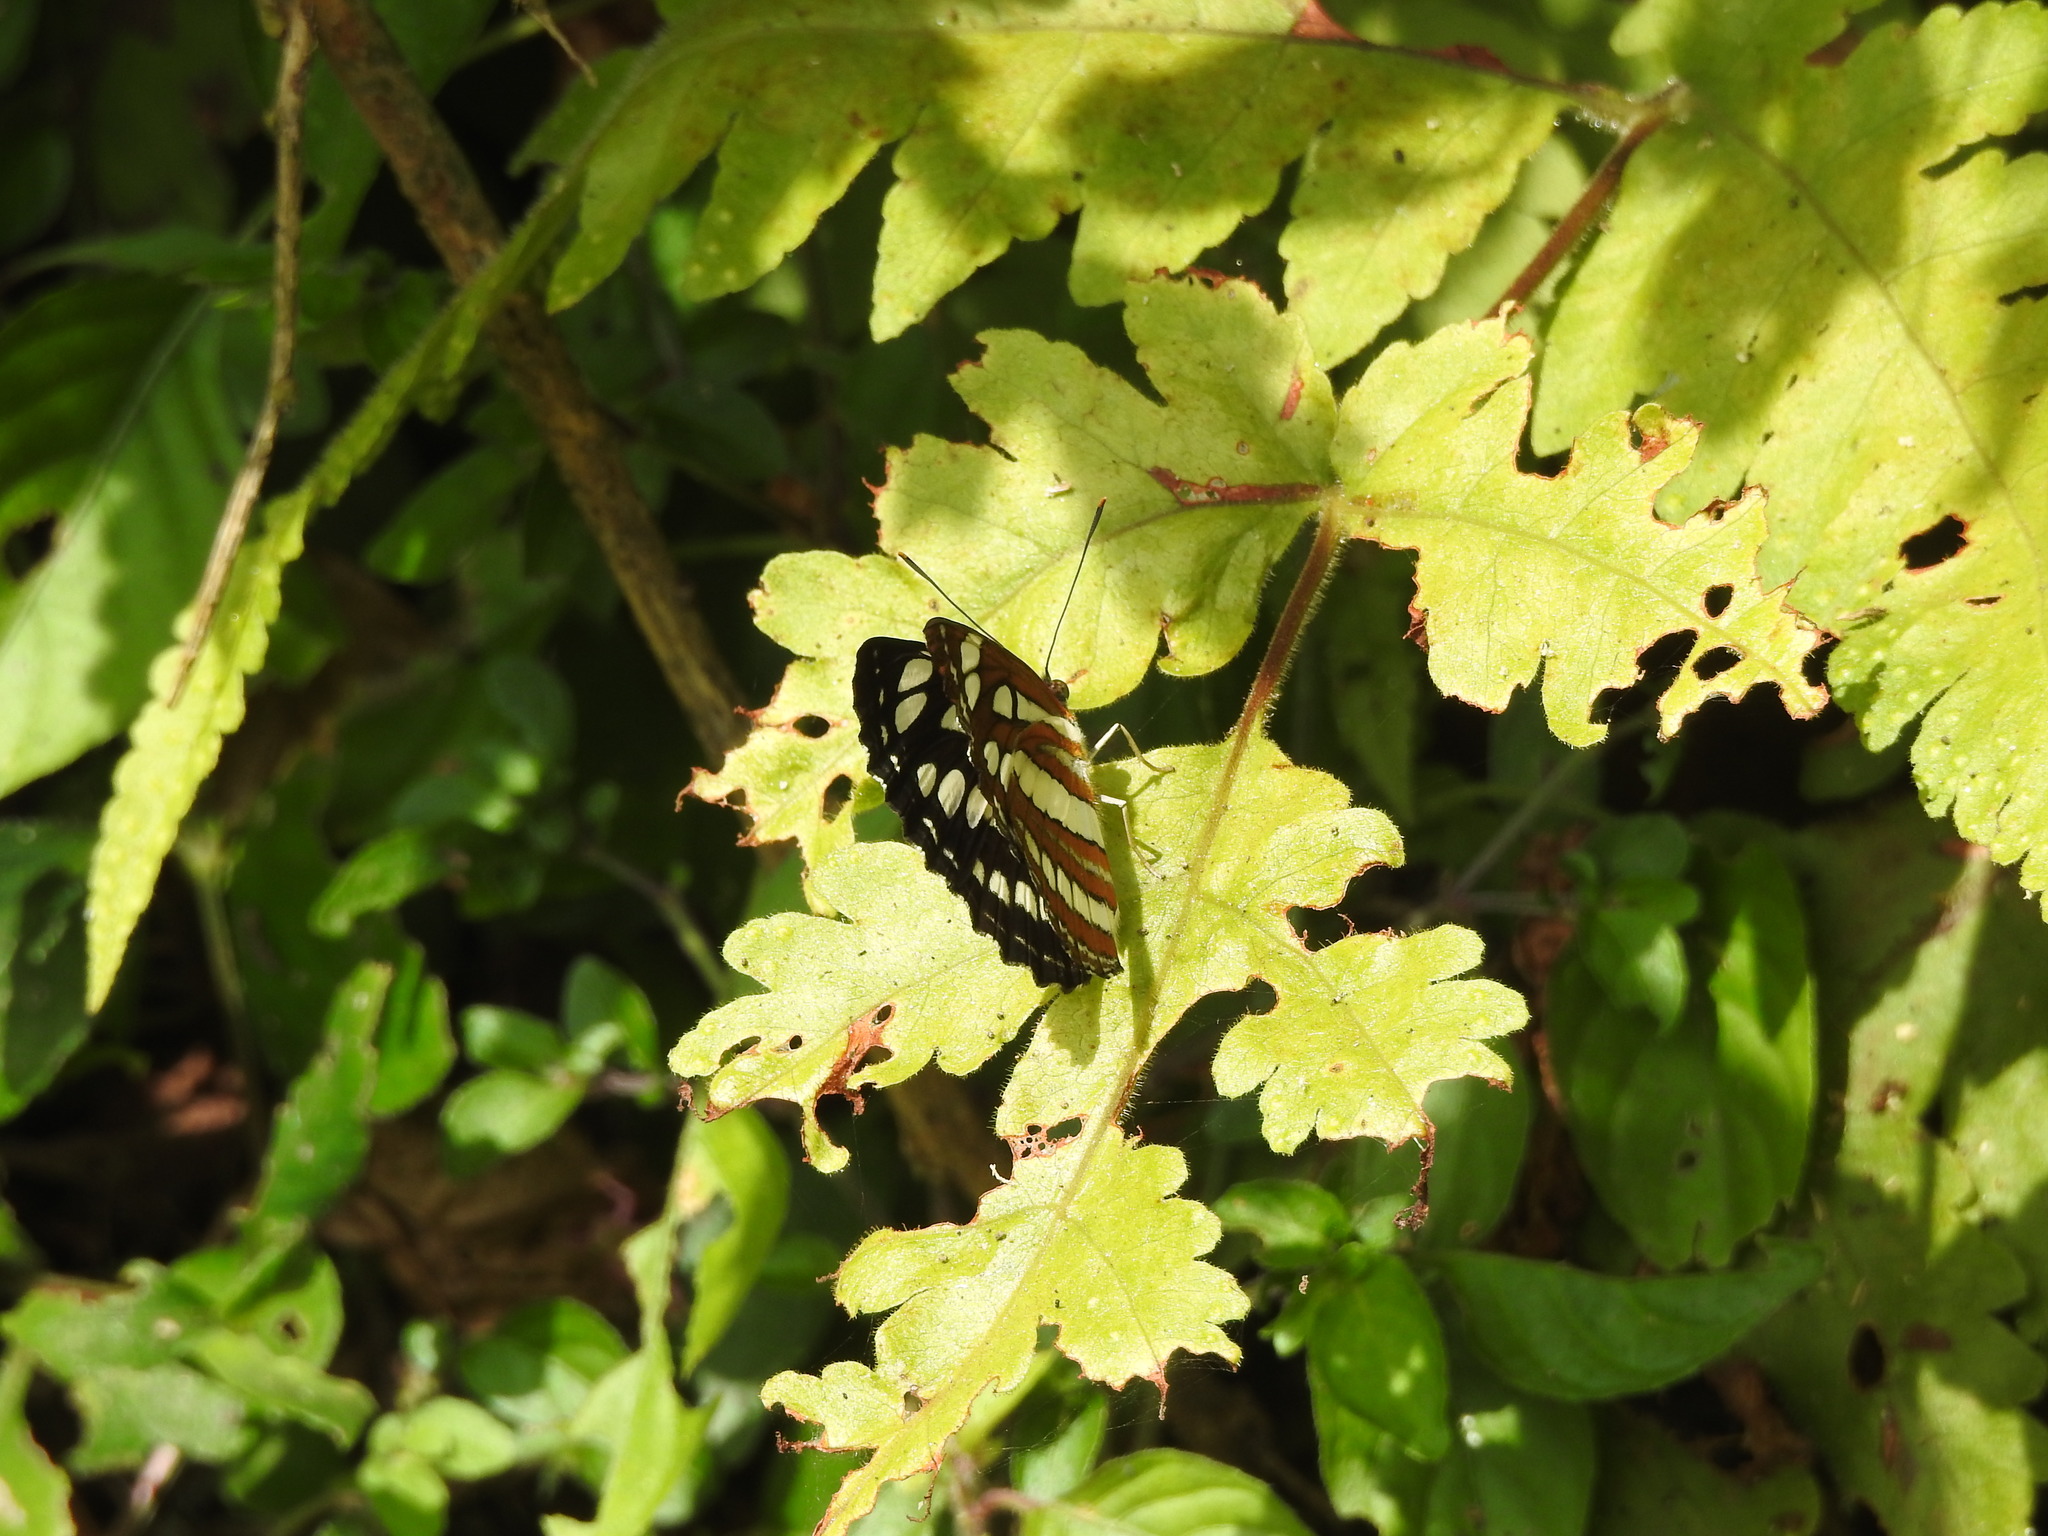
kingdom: Animalia
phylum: Arthropoda
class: Insecta
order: Lepidoptera
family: Nymphalidae
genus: Neptis
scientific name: Neptis hylas
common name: Common sailer
